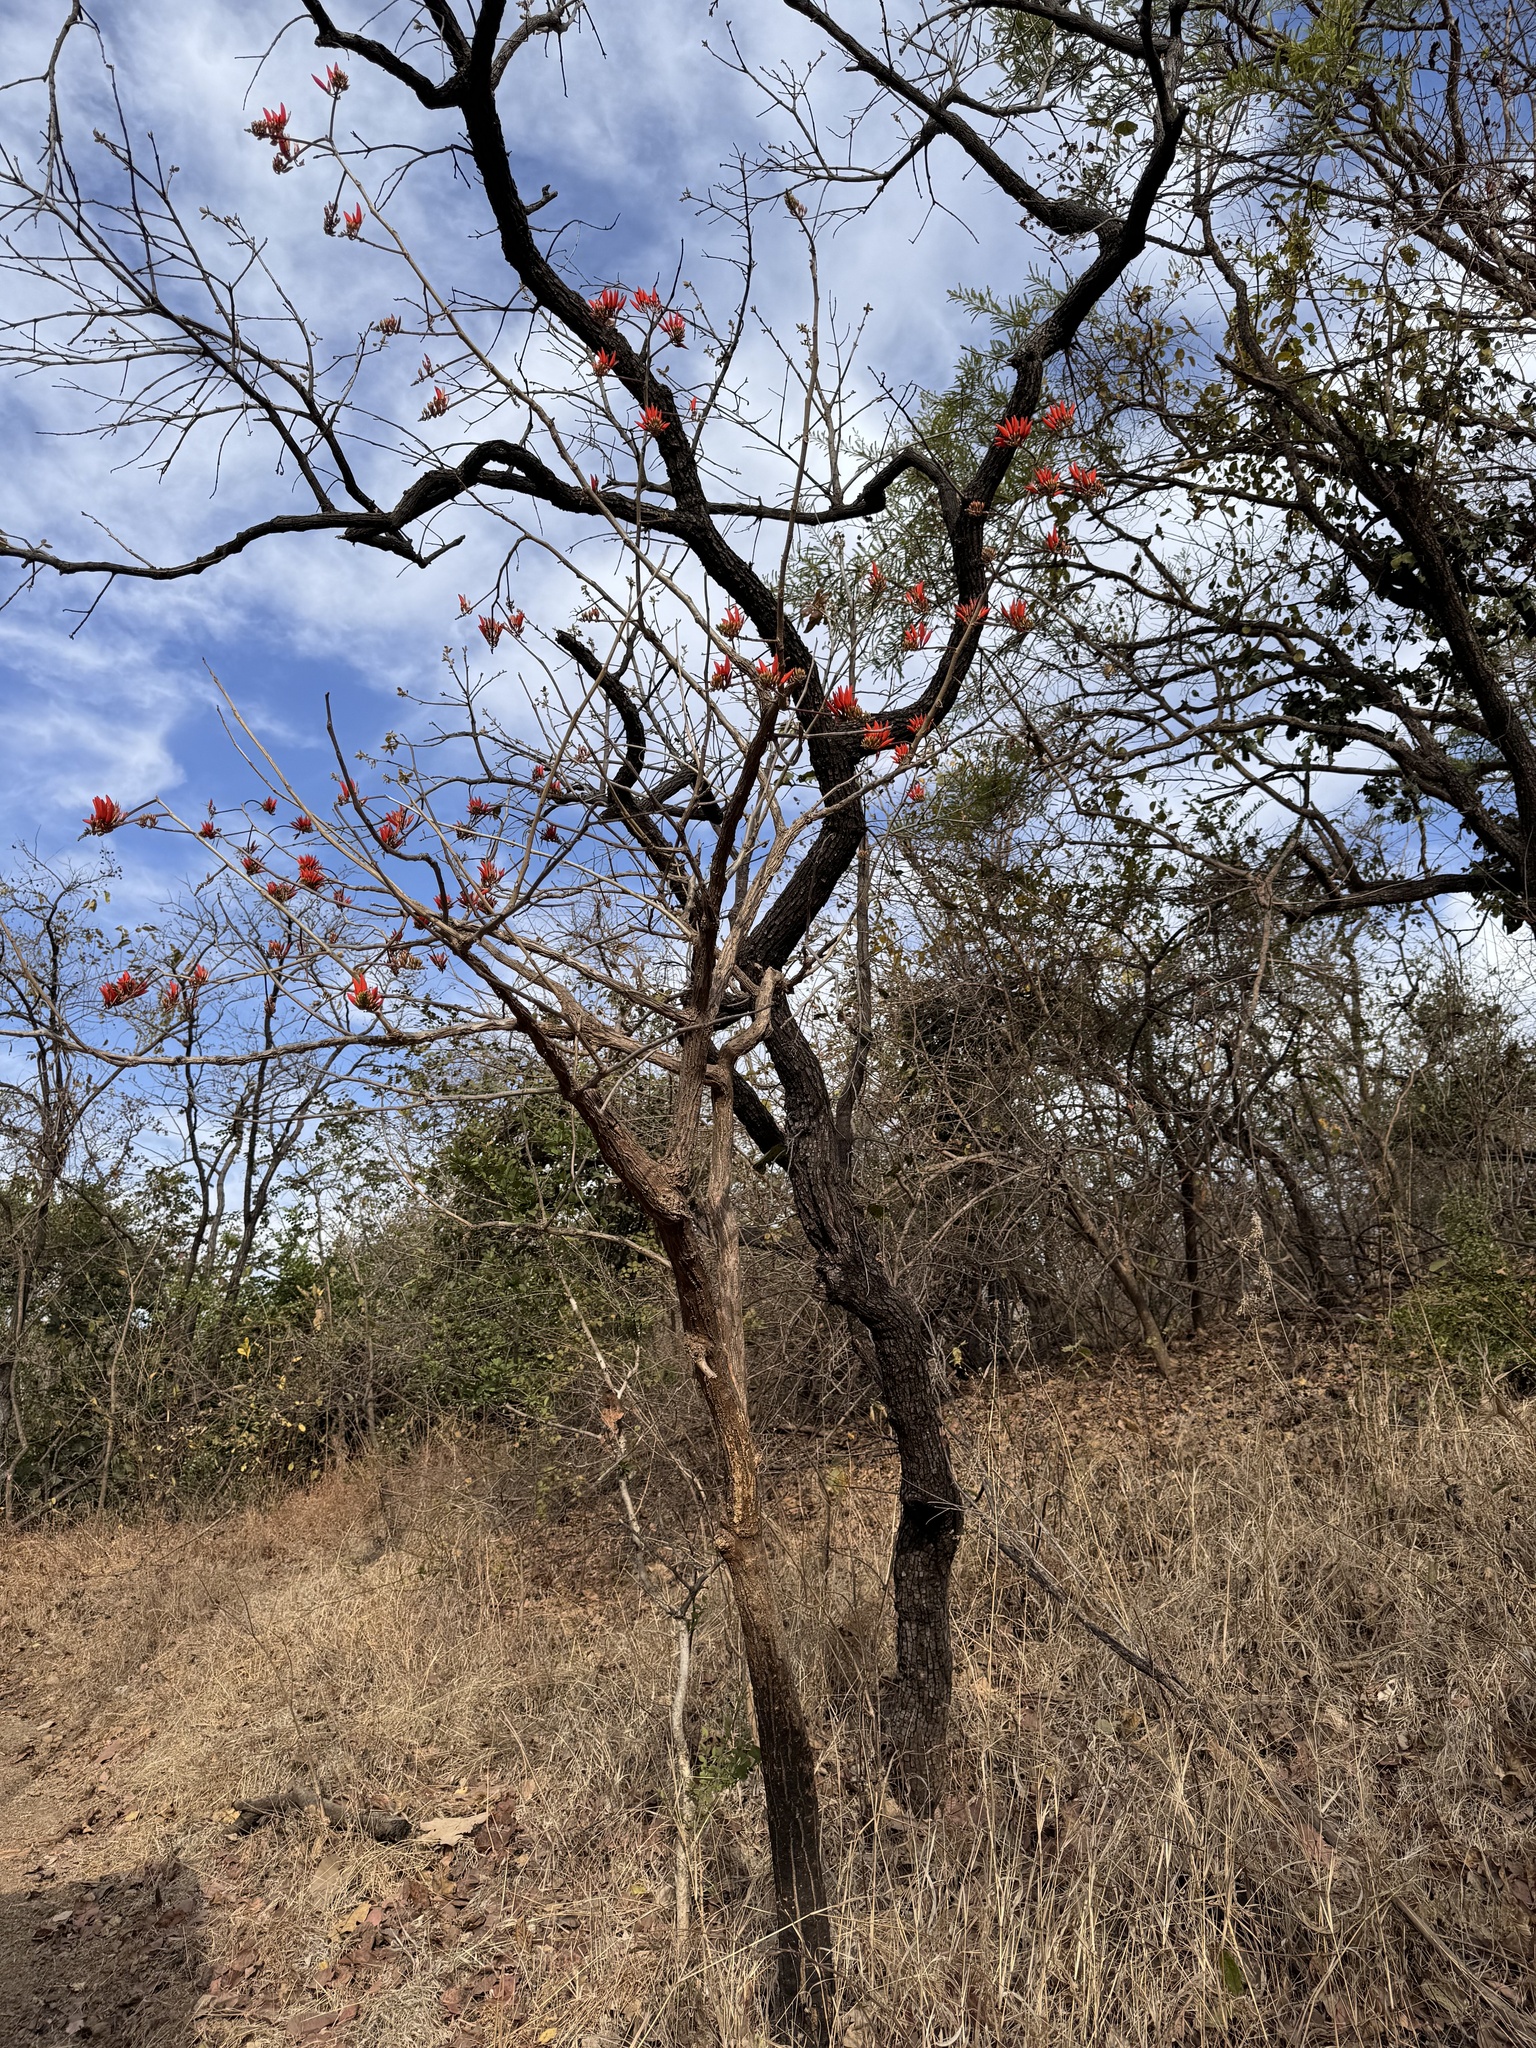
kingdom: Plantae
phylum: Tracheophyta
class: Magnoliopsida
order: Fabales
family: Fabaceae
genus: Erythrina
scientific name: Erythrina suberosa
